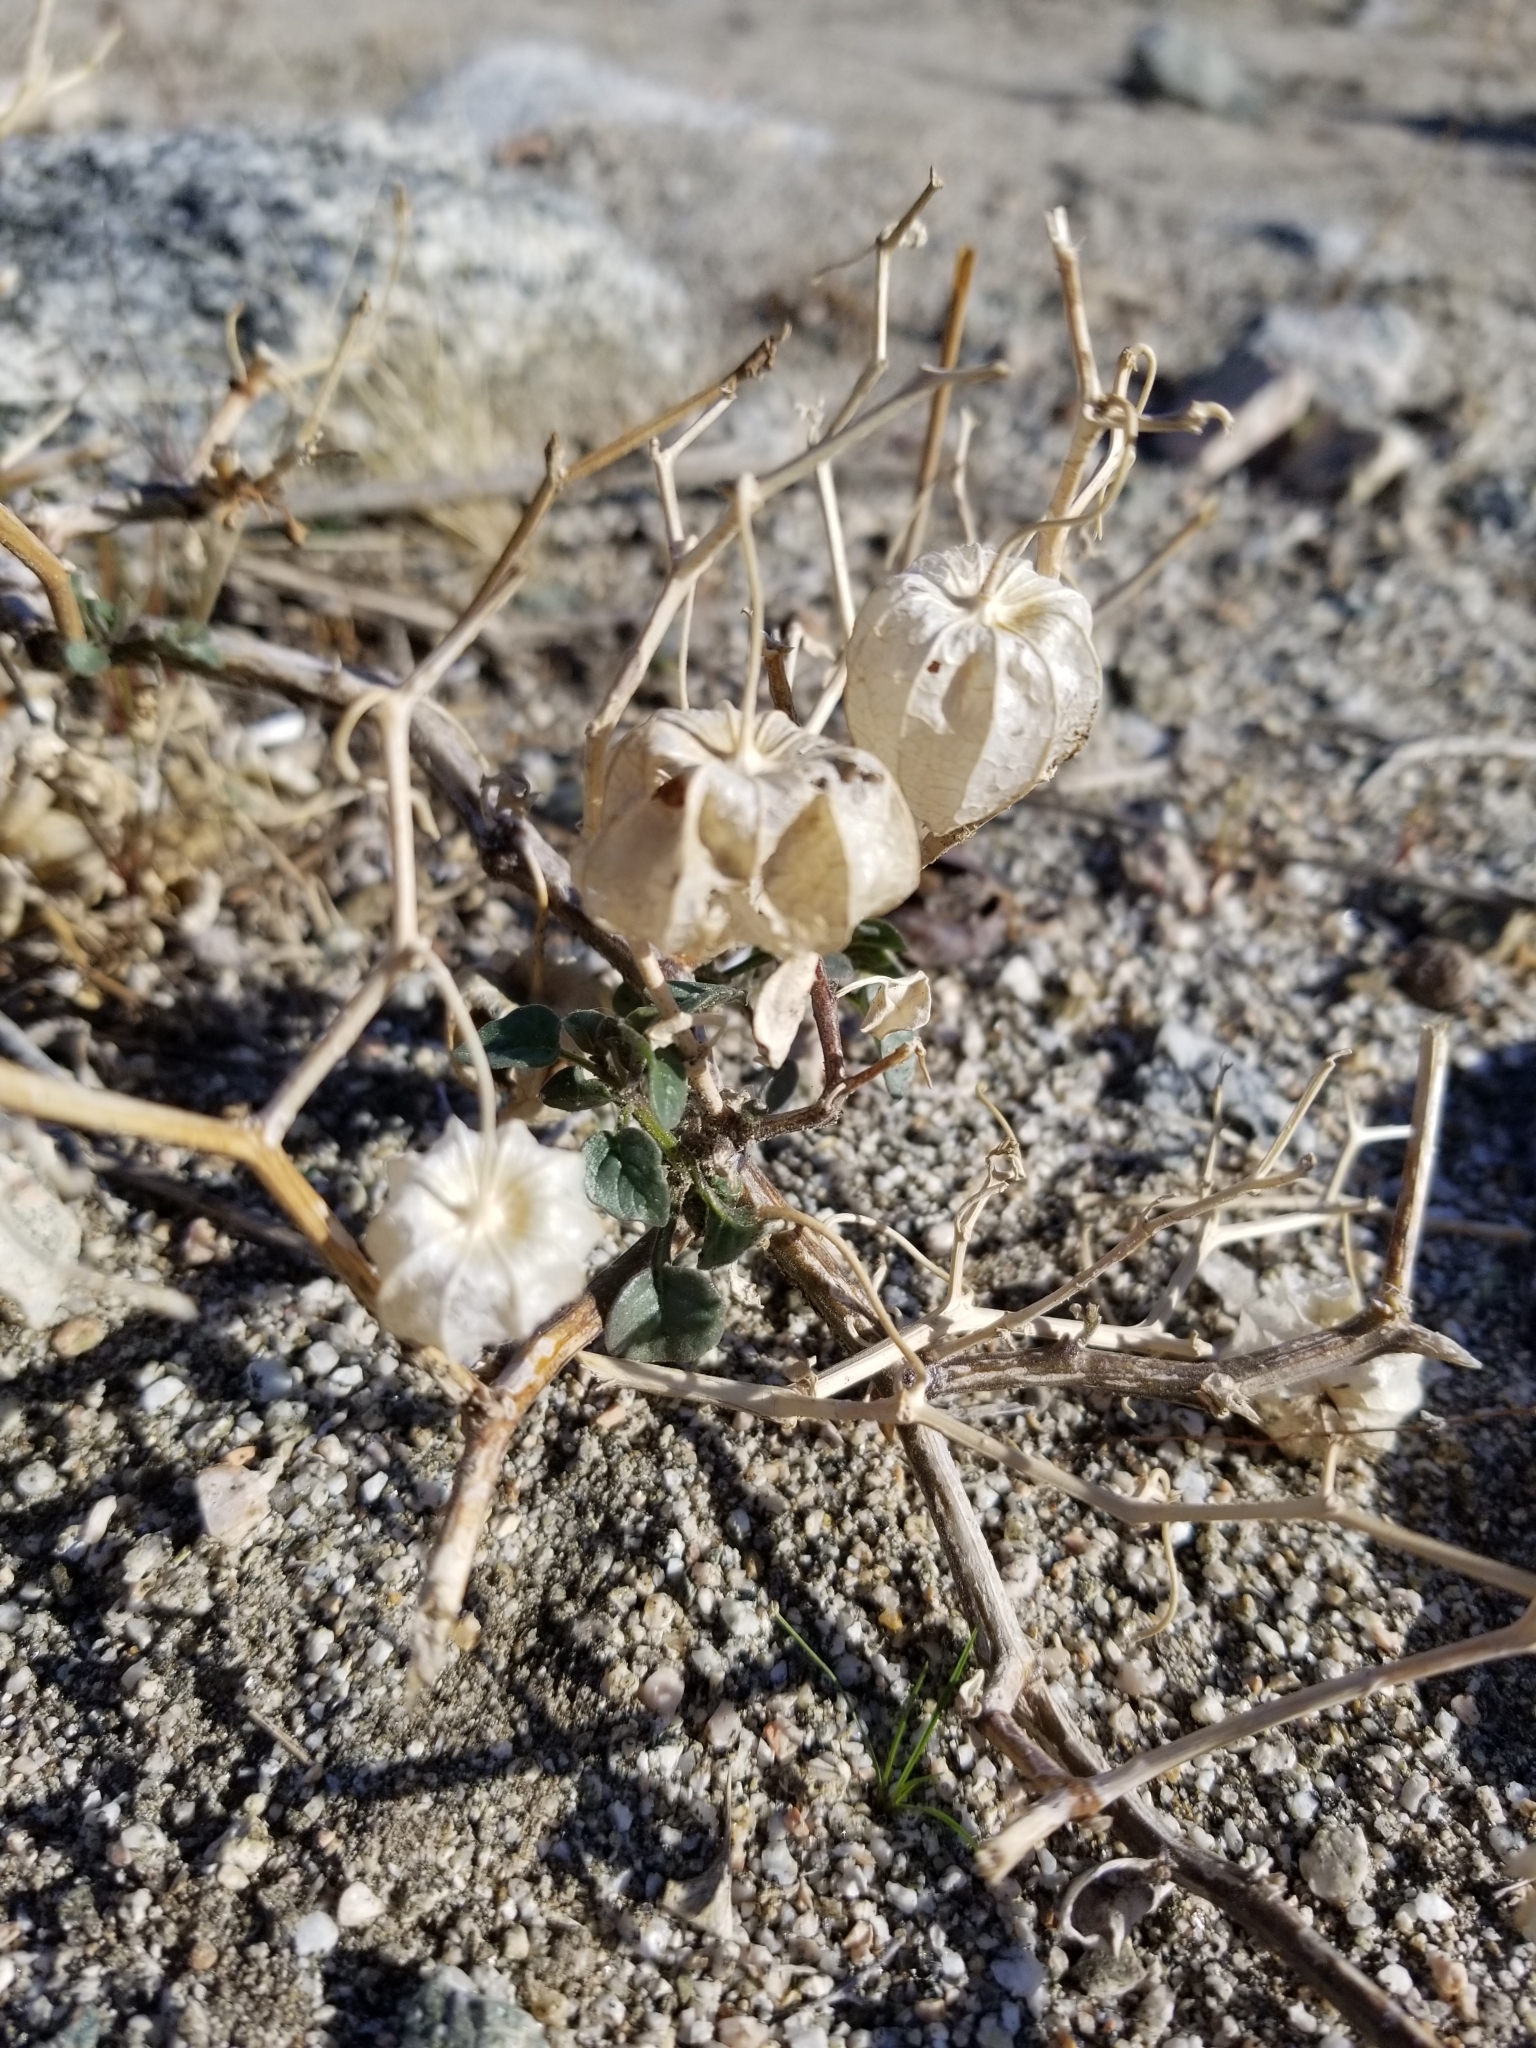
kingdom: Plantae
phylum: Tracheophyta
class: Magnoliopsida
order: Solanales
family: Solanaceae
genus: Physalis
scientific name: Physalis crassifolia
